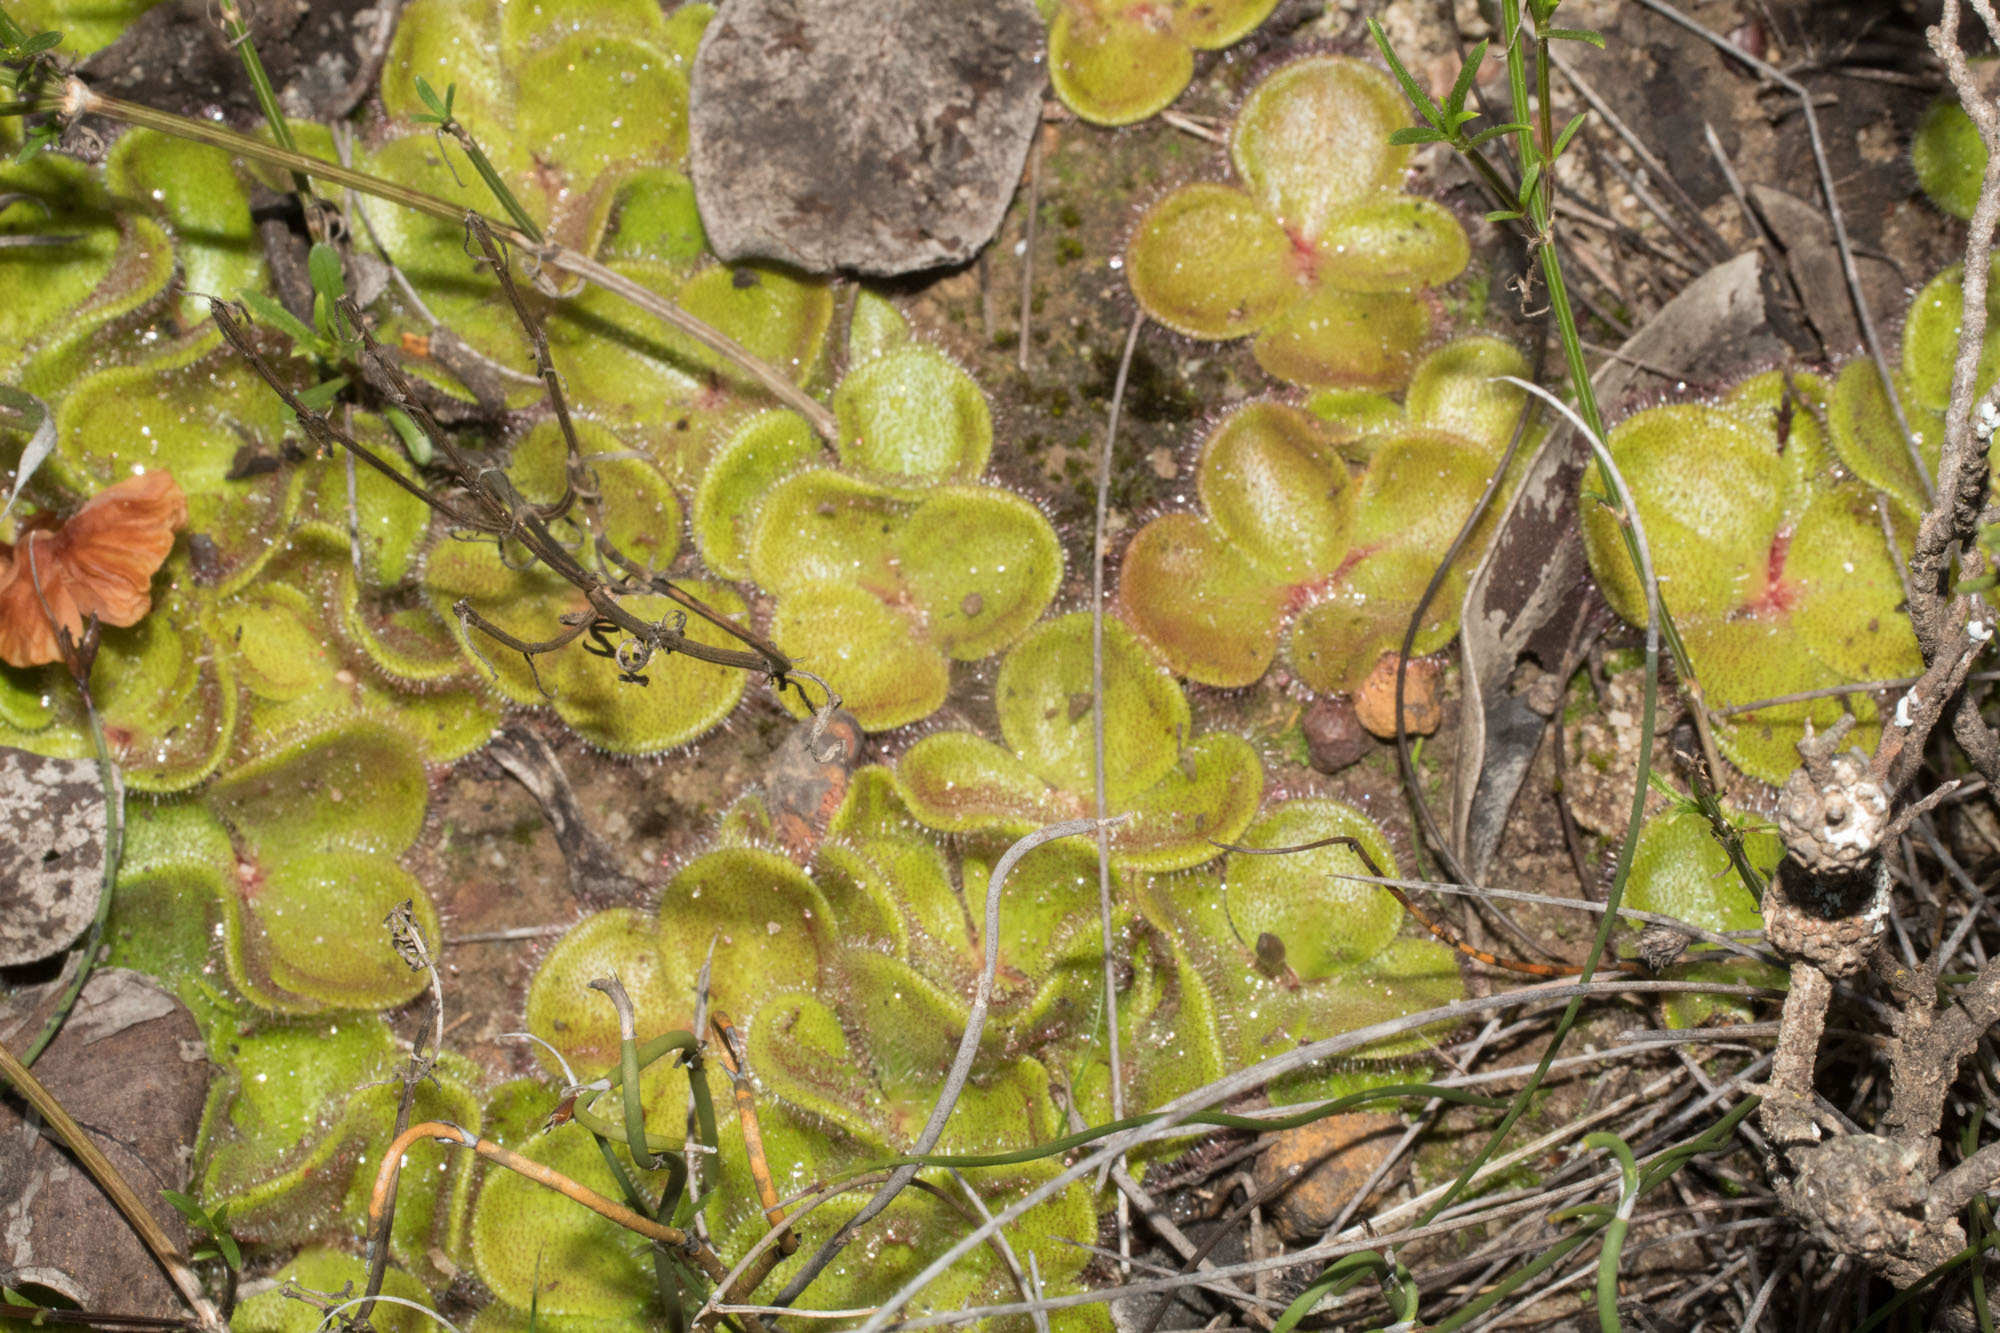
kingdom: Plantae
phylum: Tracheophyta
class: Magnoliopsida
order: Caryophyllales
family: Droseraceae
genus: Drosera
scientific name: Drosera erythrorhiza
